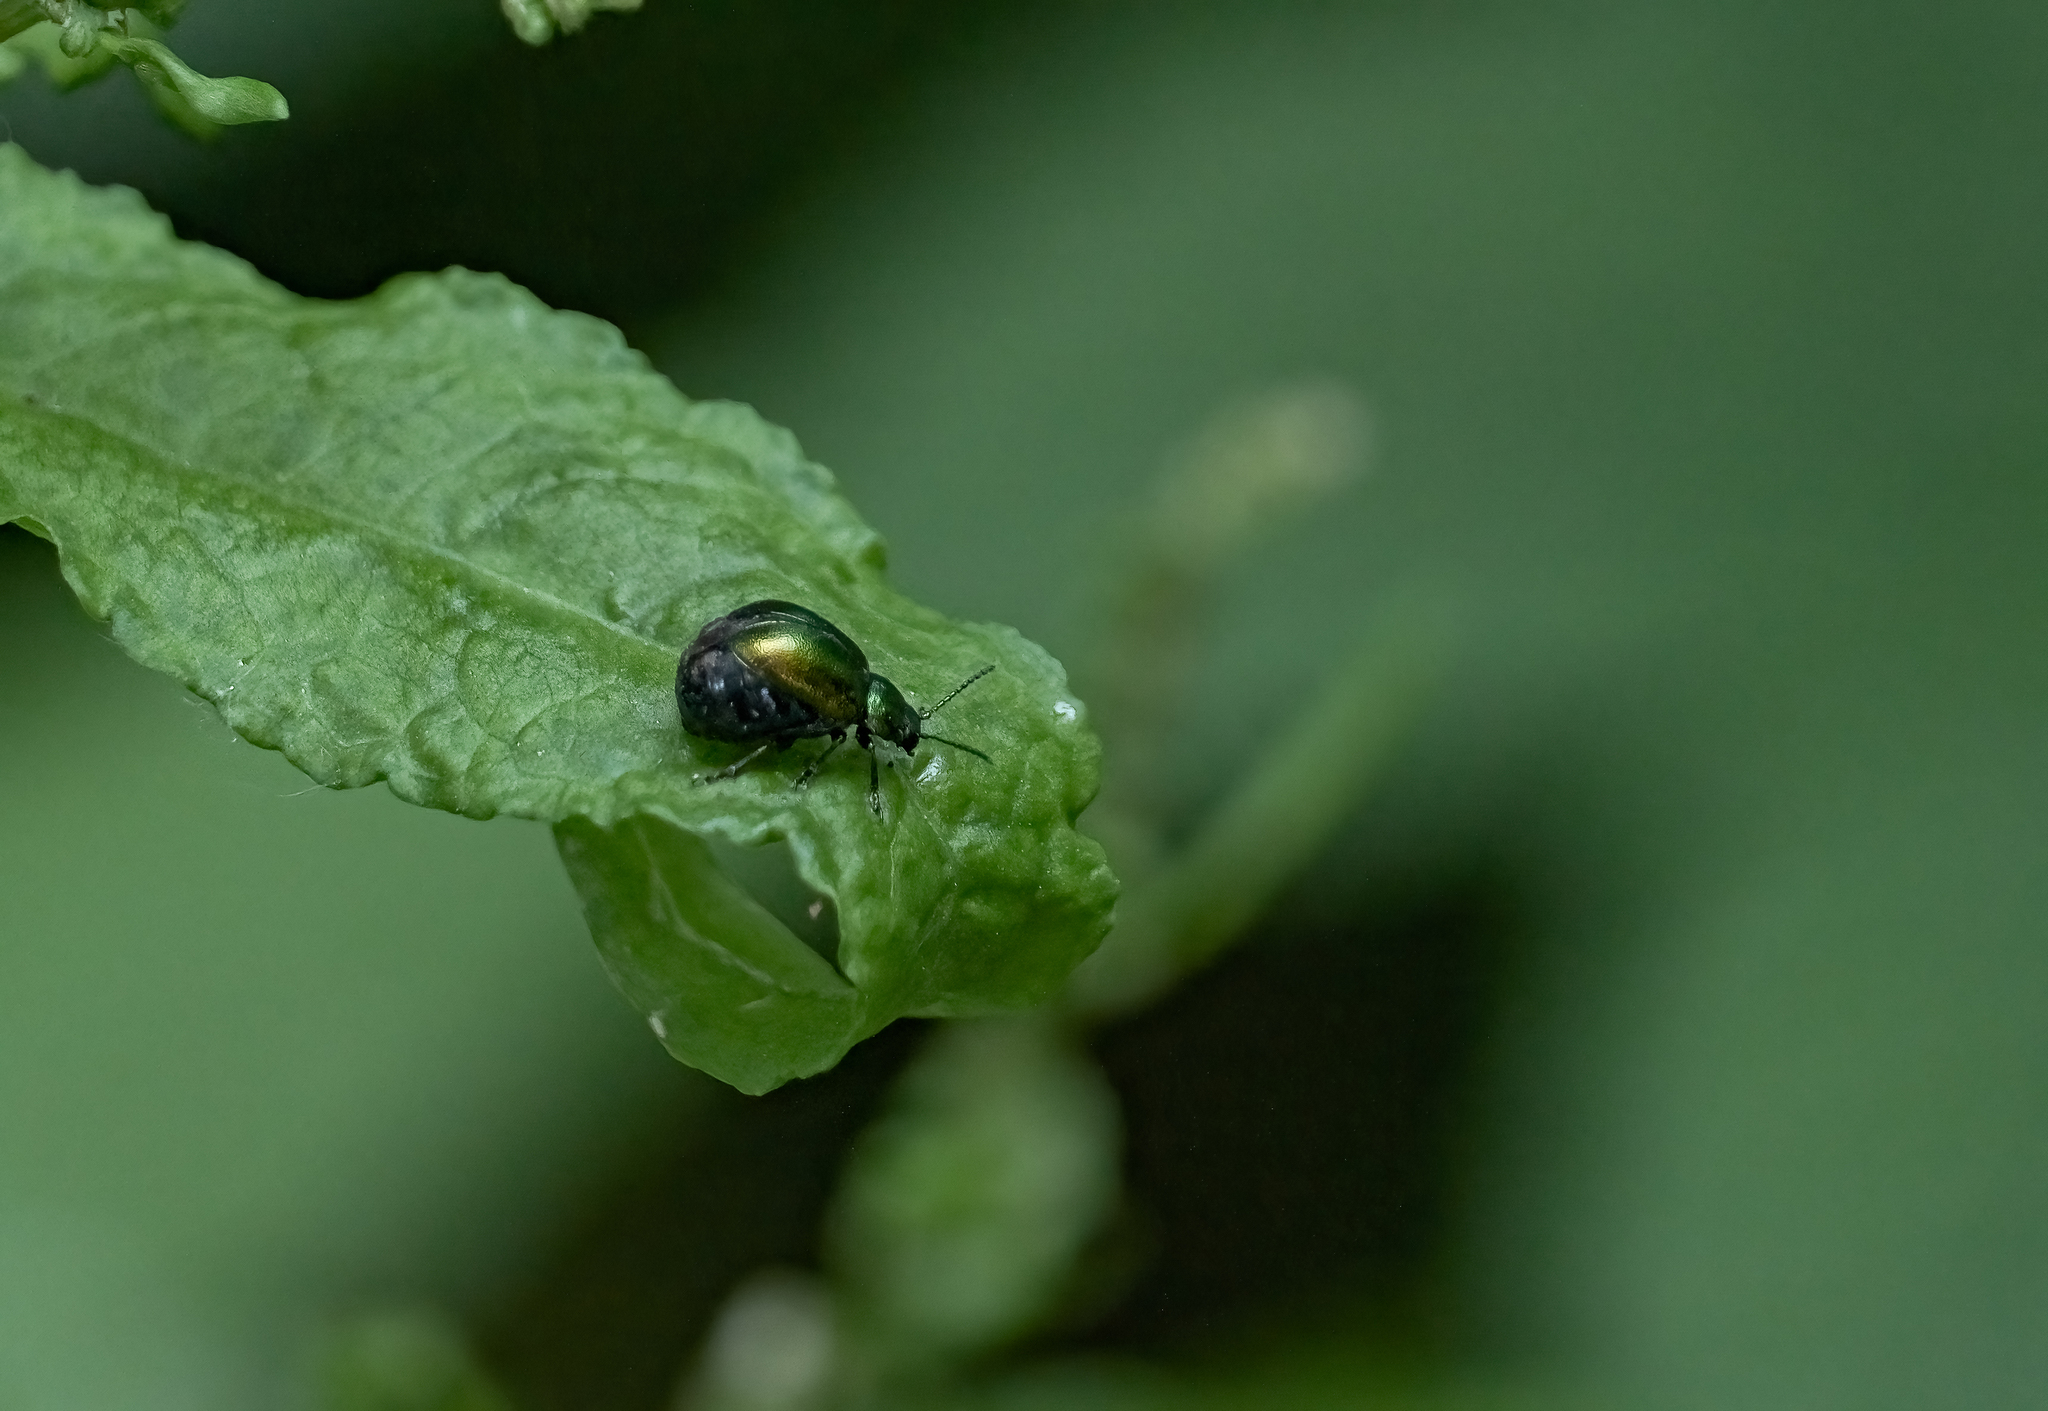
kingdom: Animalia
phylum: Arthropoda
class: Insecta
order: Coleoptera
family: Chrysomelidae
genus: Gastrophysa
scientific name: Gastrophysa viridula
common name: Green dock beetle
